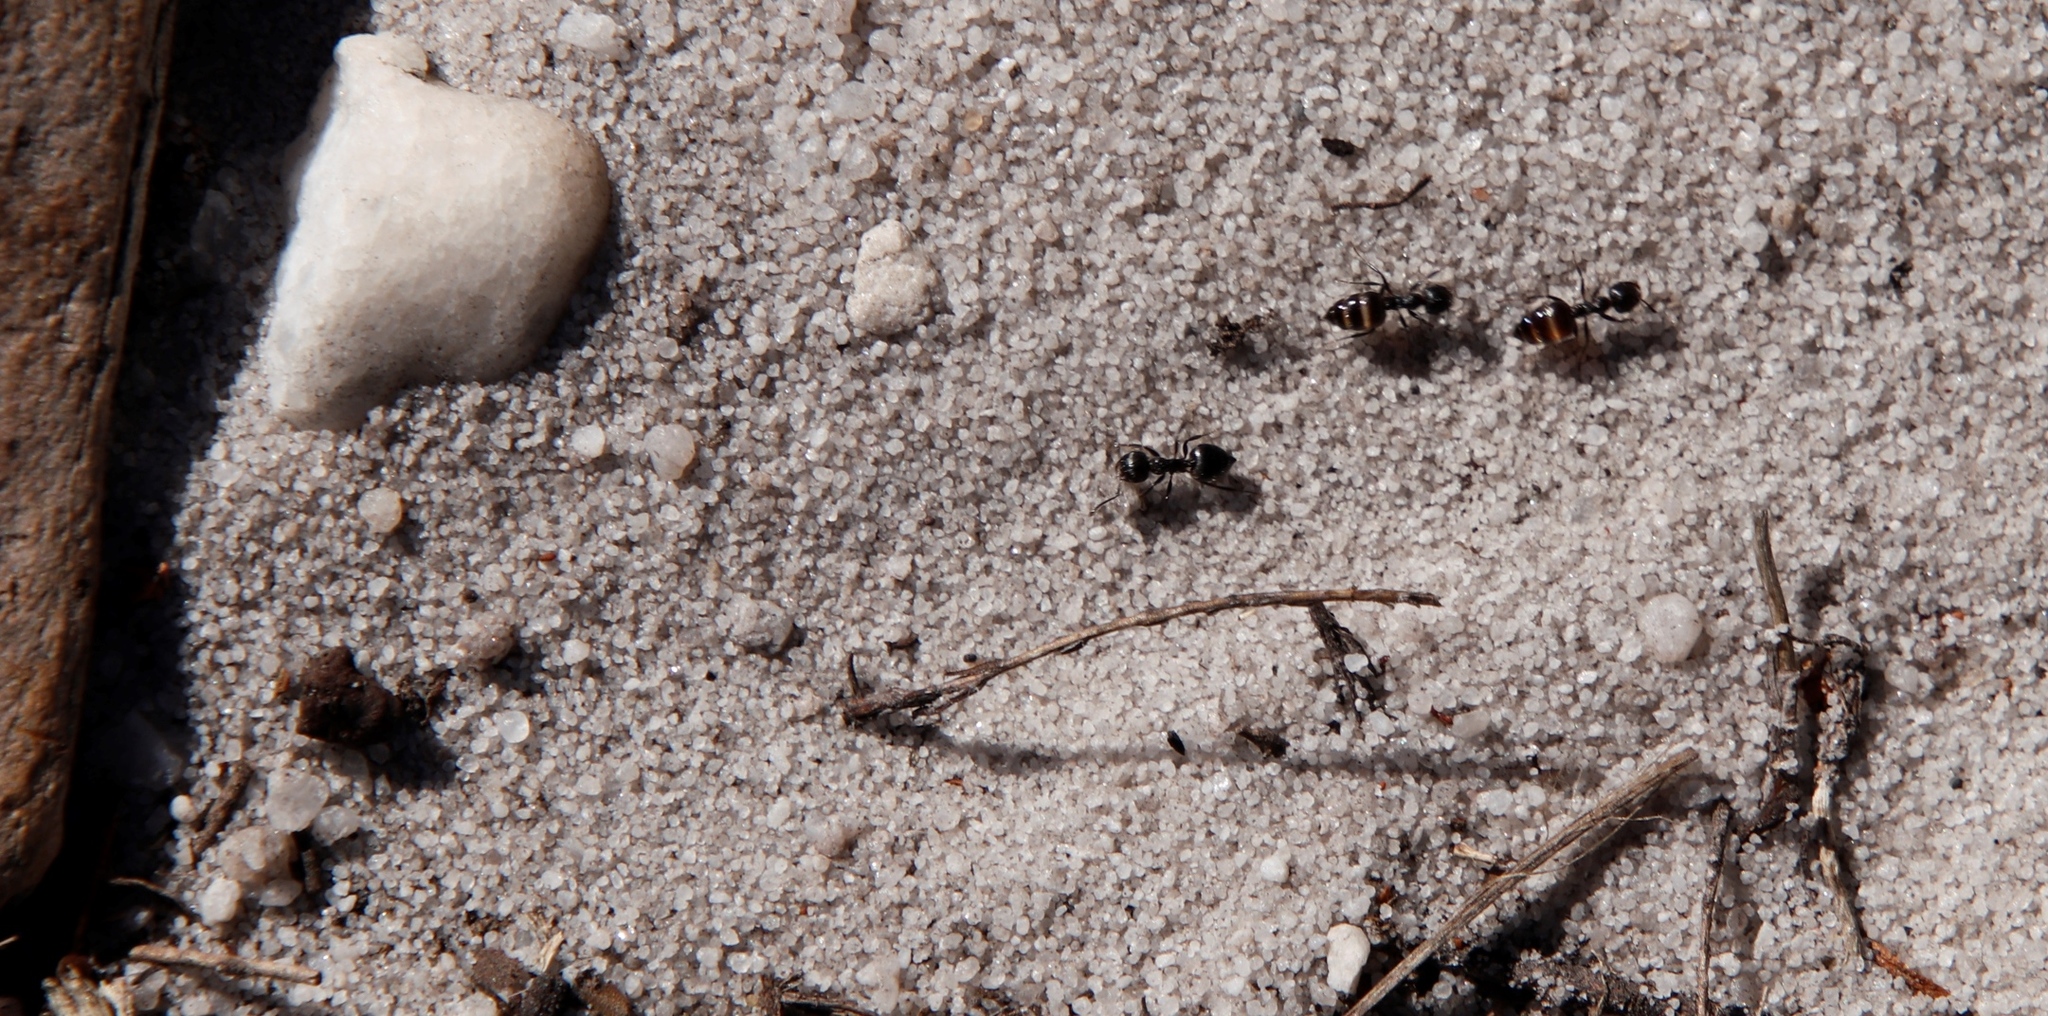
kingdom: Animalia
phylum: Arthropoda
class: Insecta
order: Hymenoptera
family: Formicidae
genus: Crematogaster
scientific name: Crematogaster peringueyi
